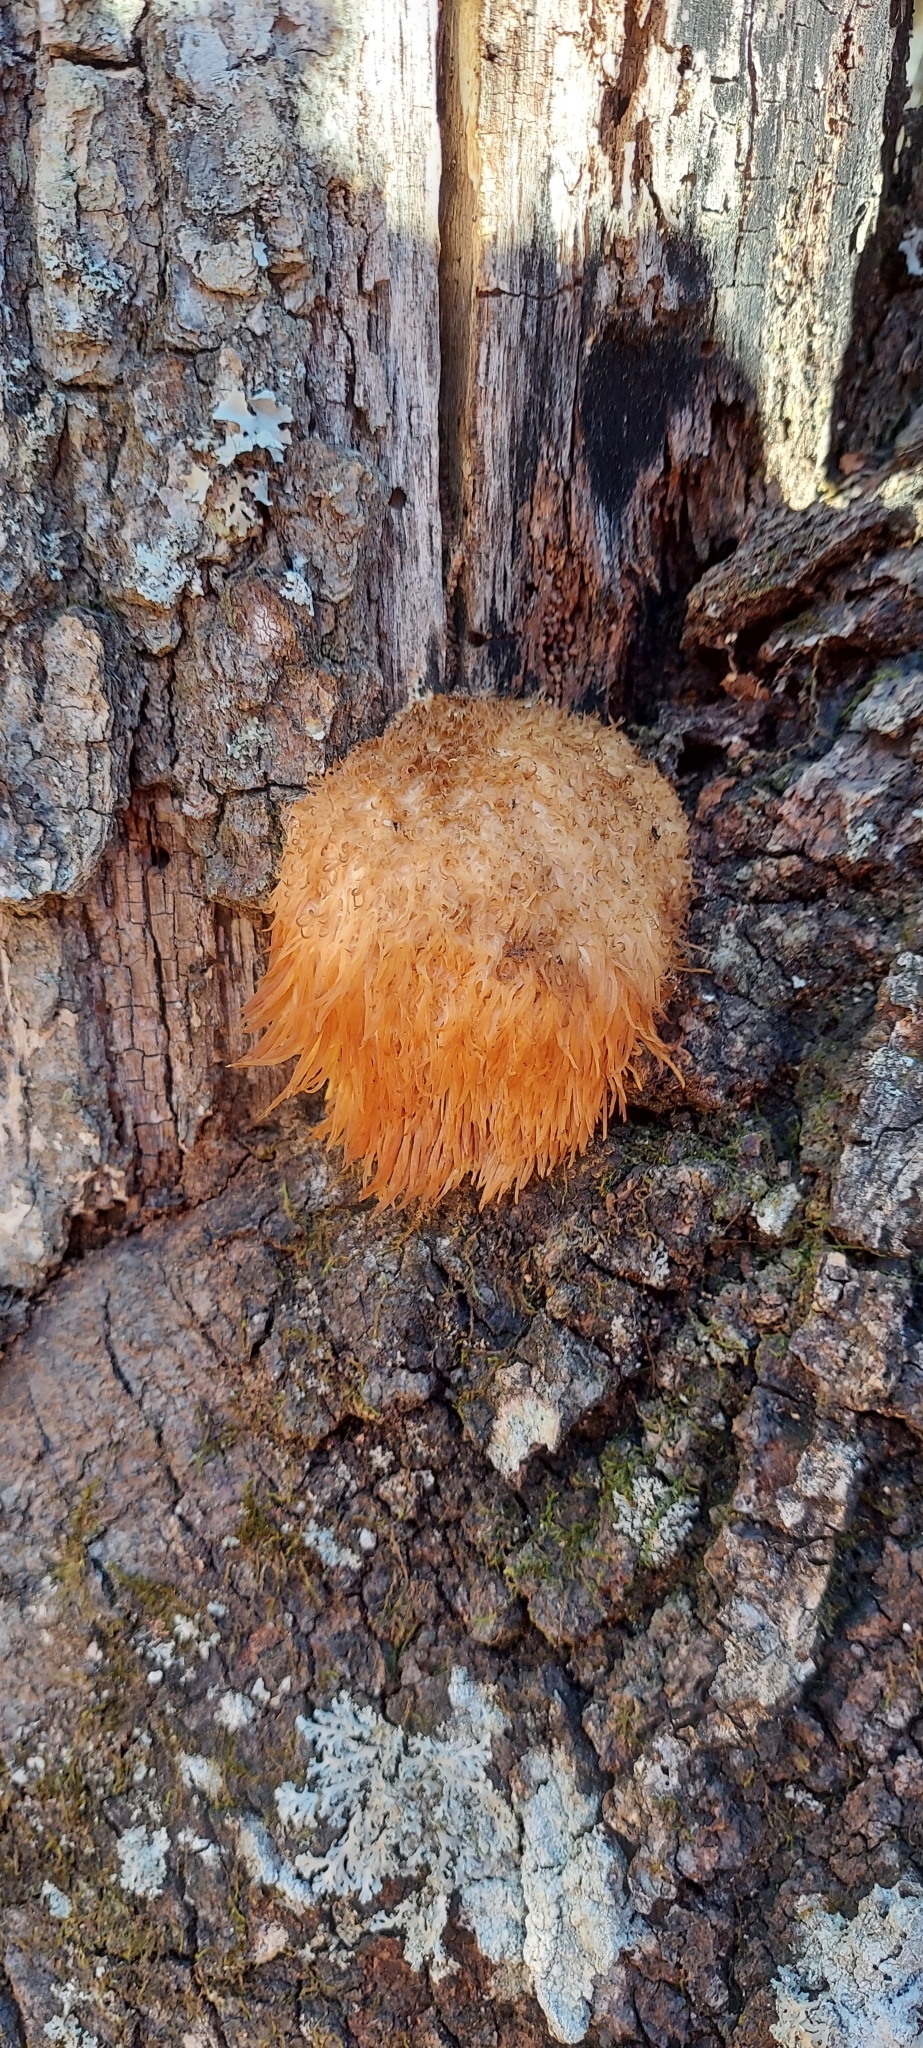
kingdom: Fungi
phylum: Basidiomycota
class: Agaricomycetes
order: Russulales
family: Hericiaceae
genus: Hericium
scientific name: Hericium erinaceus
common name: Bearded tooth
